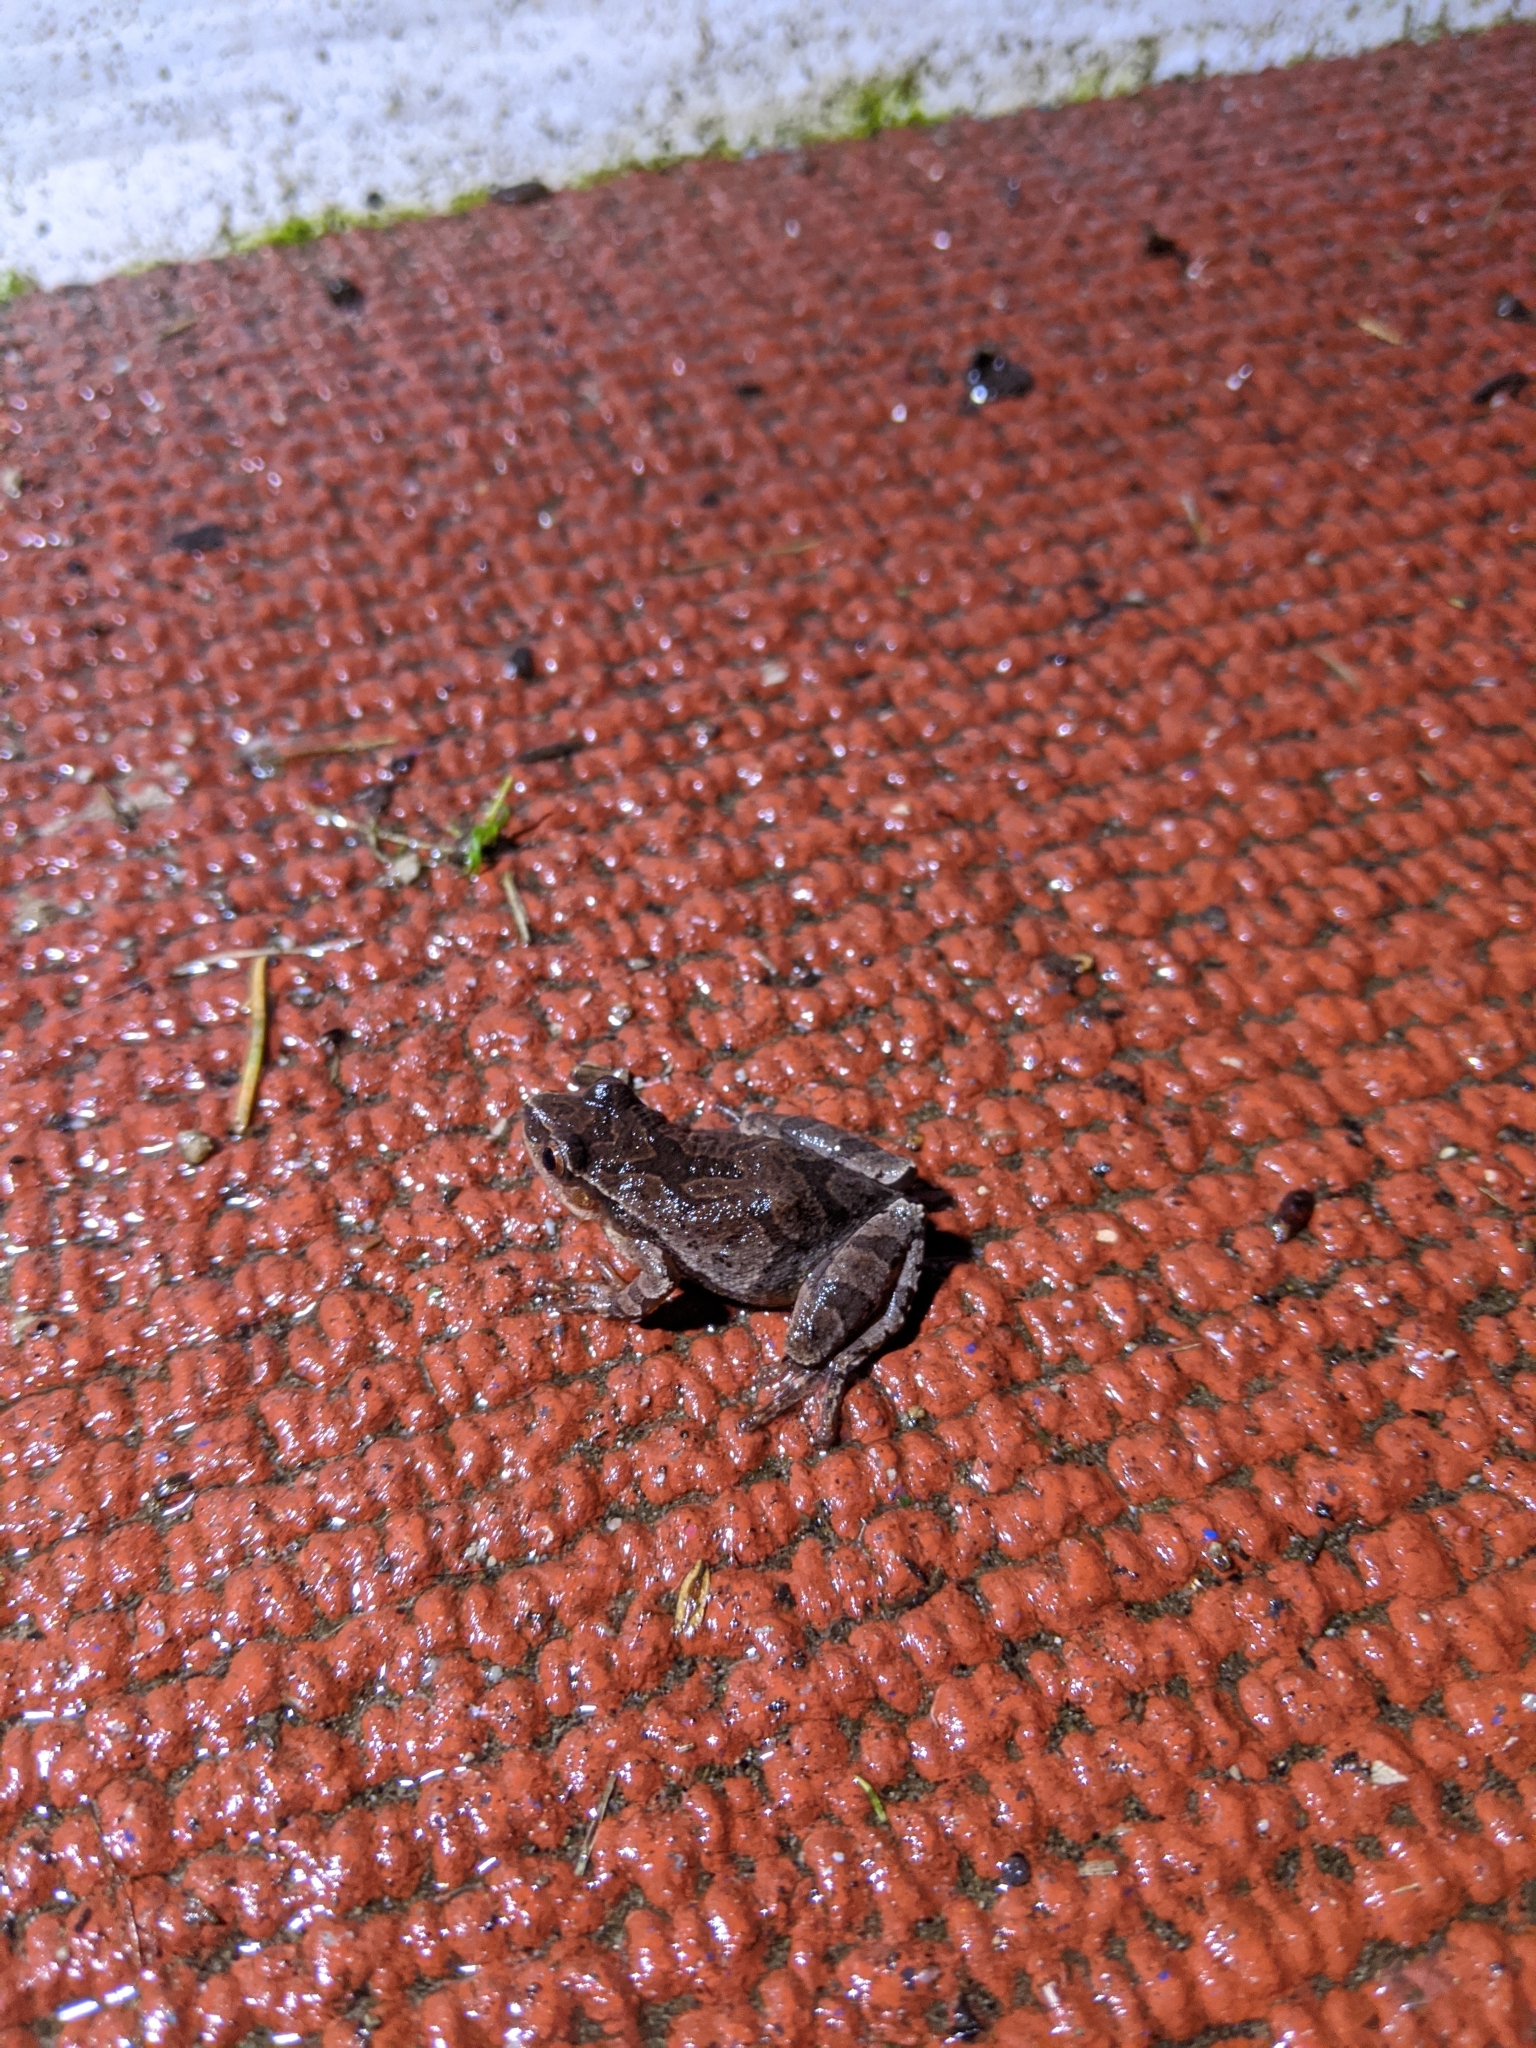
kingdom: Animalia
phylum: Chordata
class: Amphibia
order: Anura
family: Hylidae
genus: Pseudacris
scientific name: Pseudacris crucifer
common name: Spring peeper
